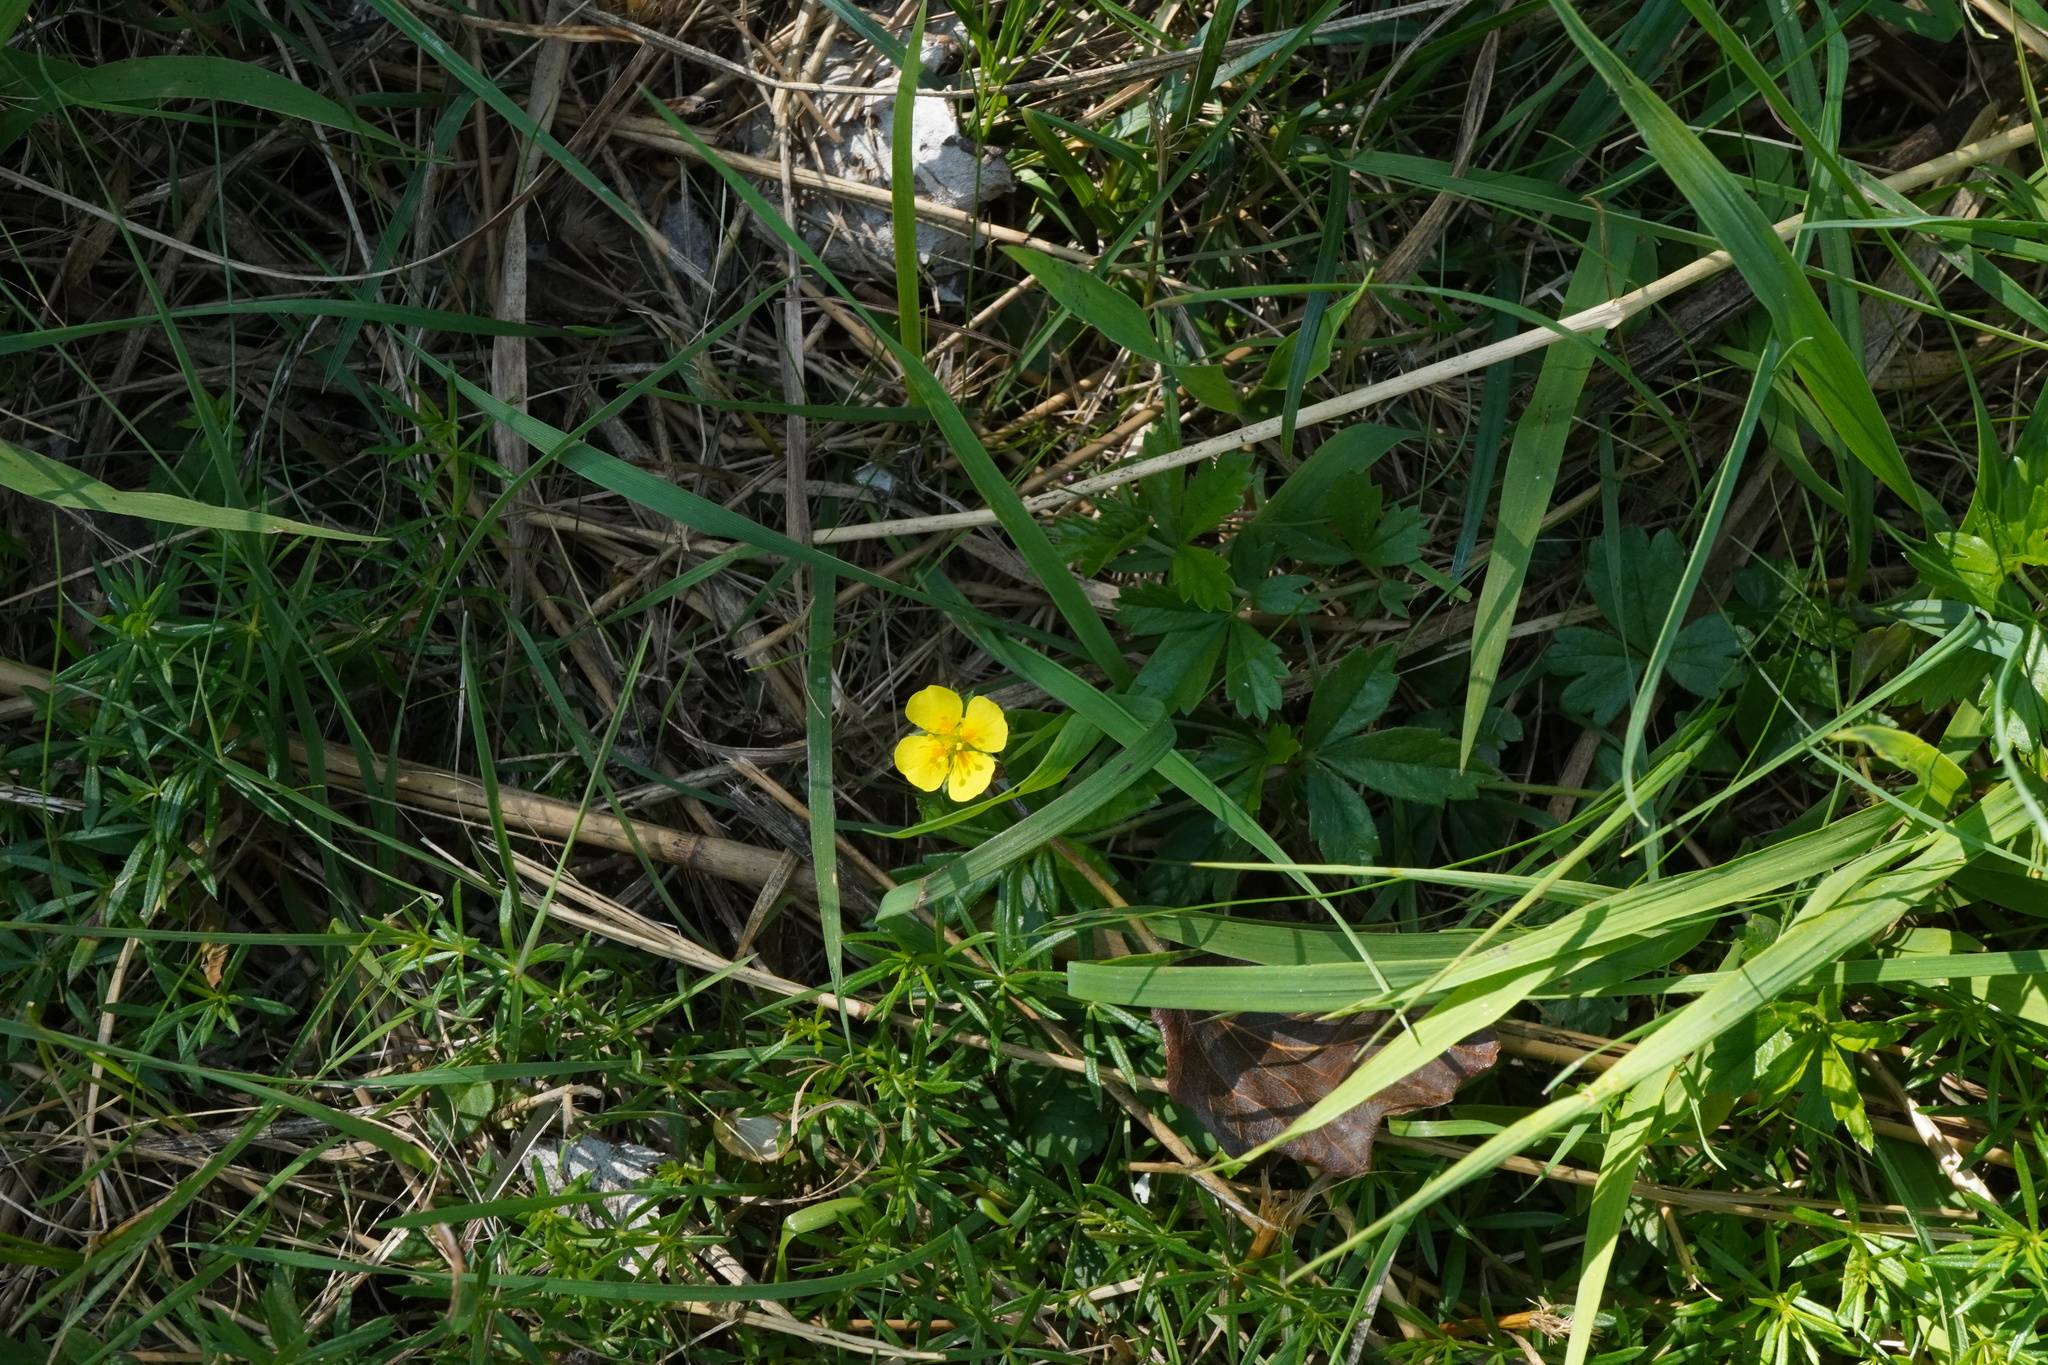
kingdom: Plantae
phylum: Tracheophyta
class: Magnoliopsida
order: Rosales
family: Rosaceae
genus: Potentilla
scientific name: Potentilla erecta
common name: Tormentil
